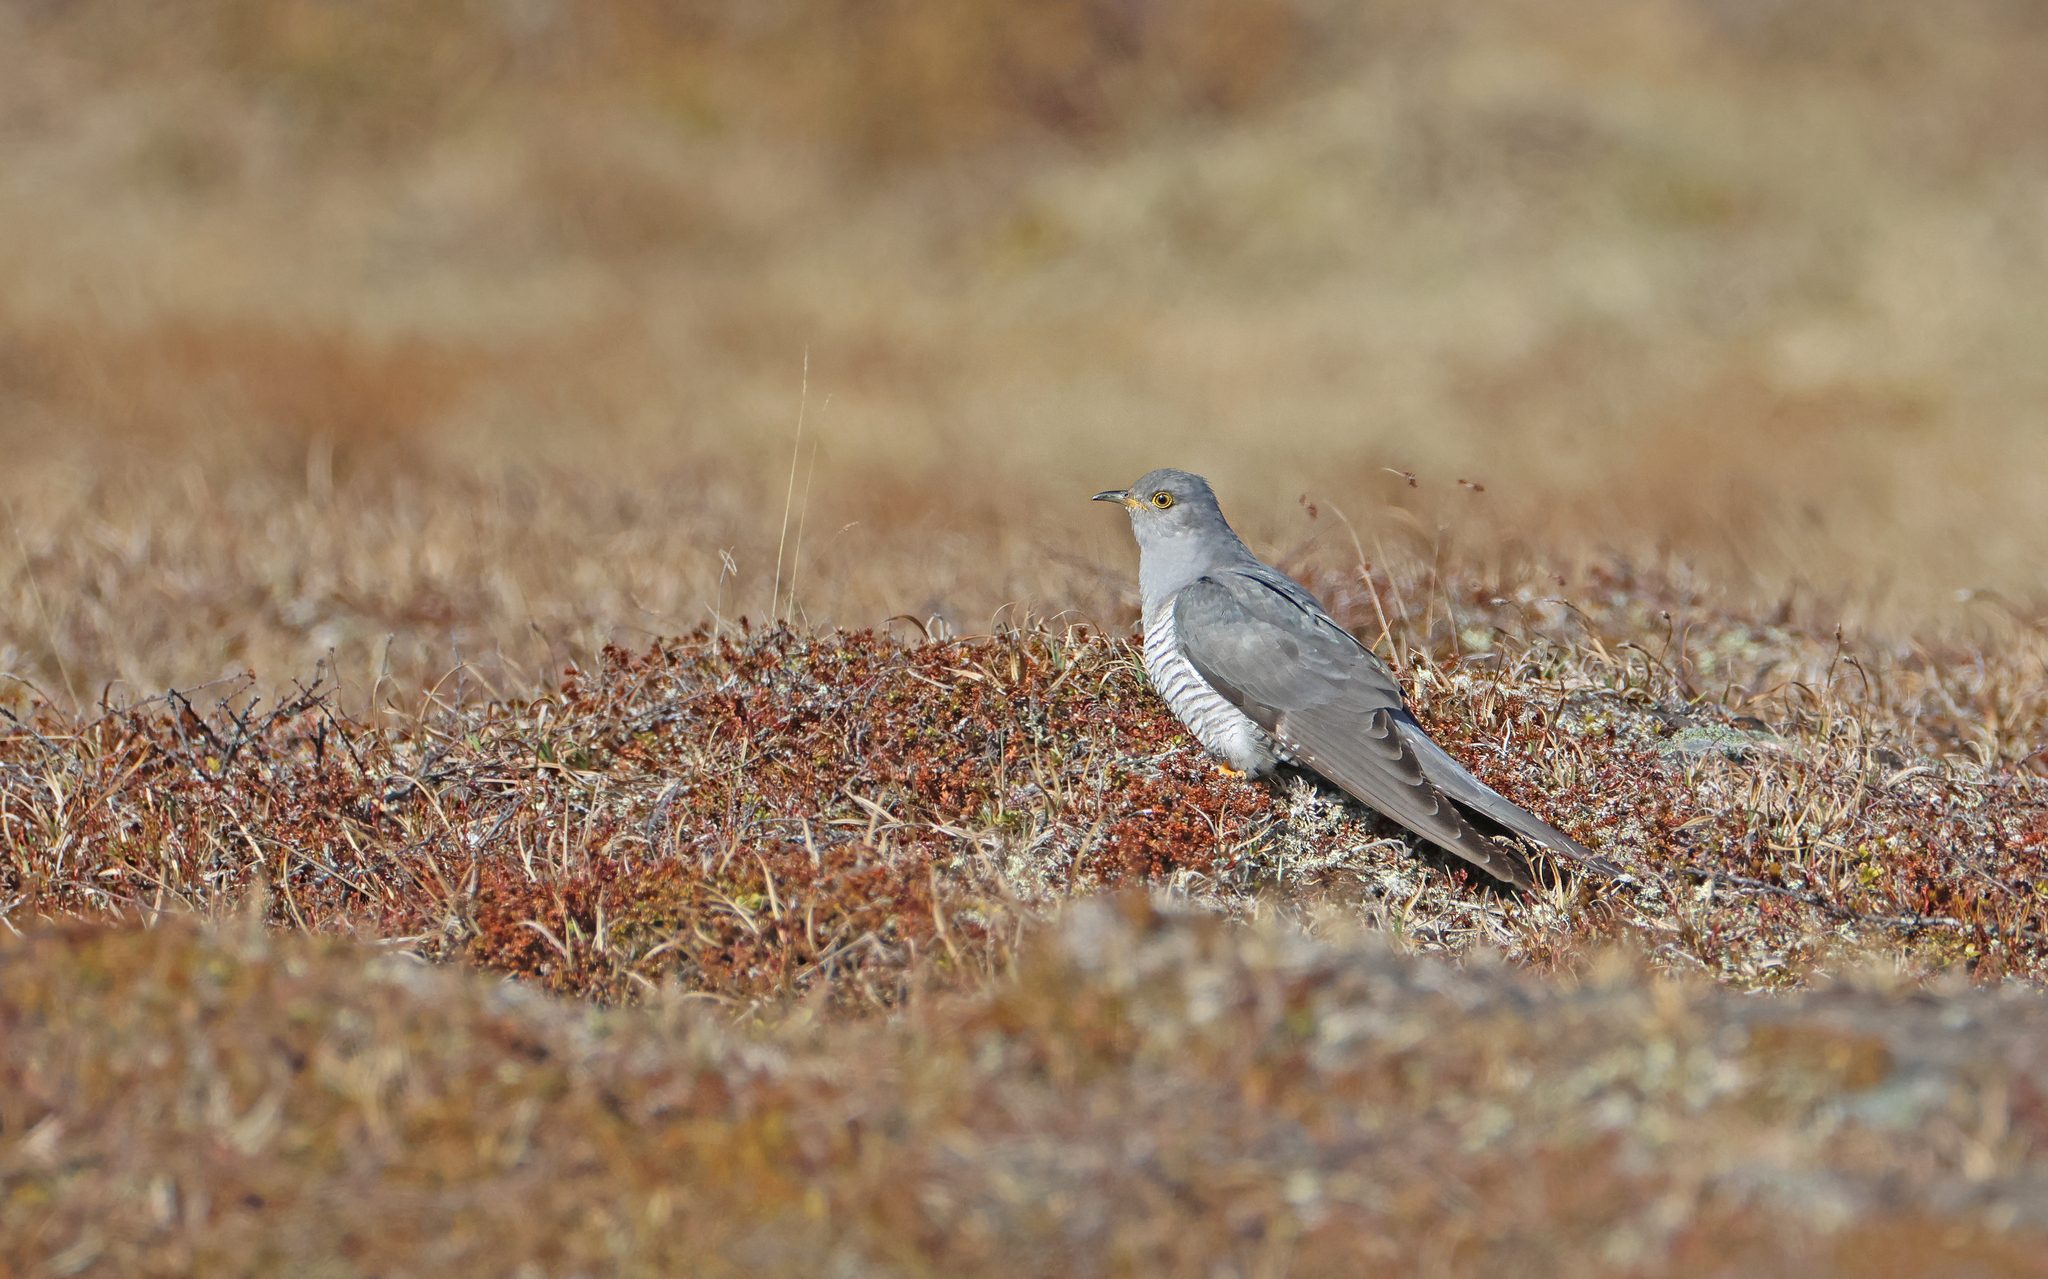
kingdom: Animalia
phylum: Chordata
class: Aves
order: Cuculiformes
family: Cuculidae
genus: Cuculus
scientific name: Cuculus canorus
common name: Common cuckoo
